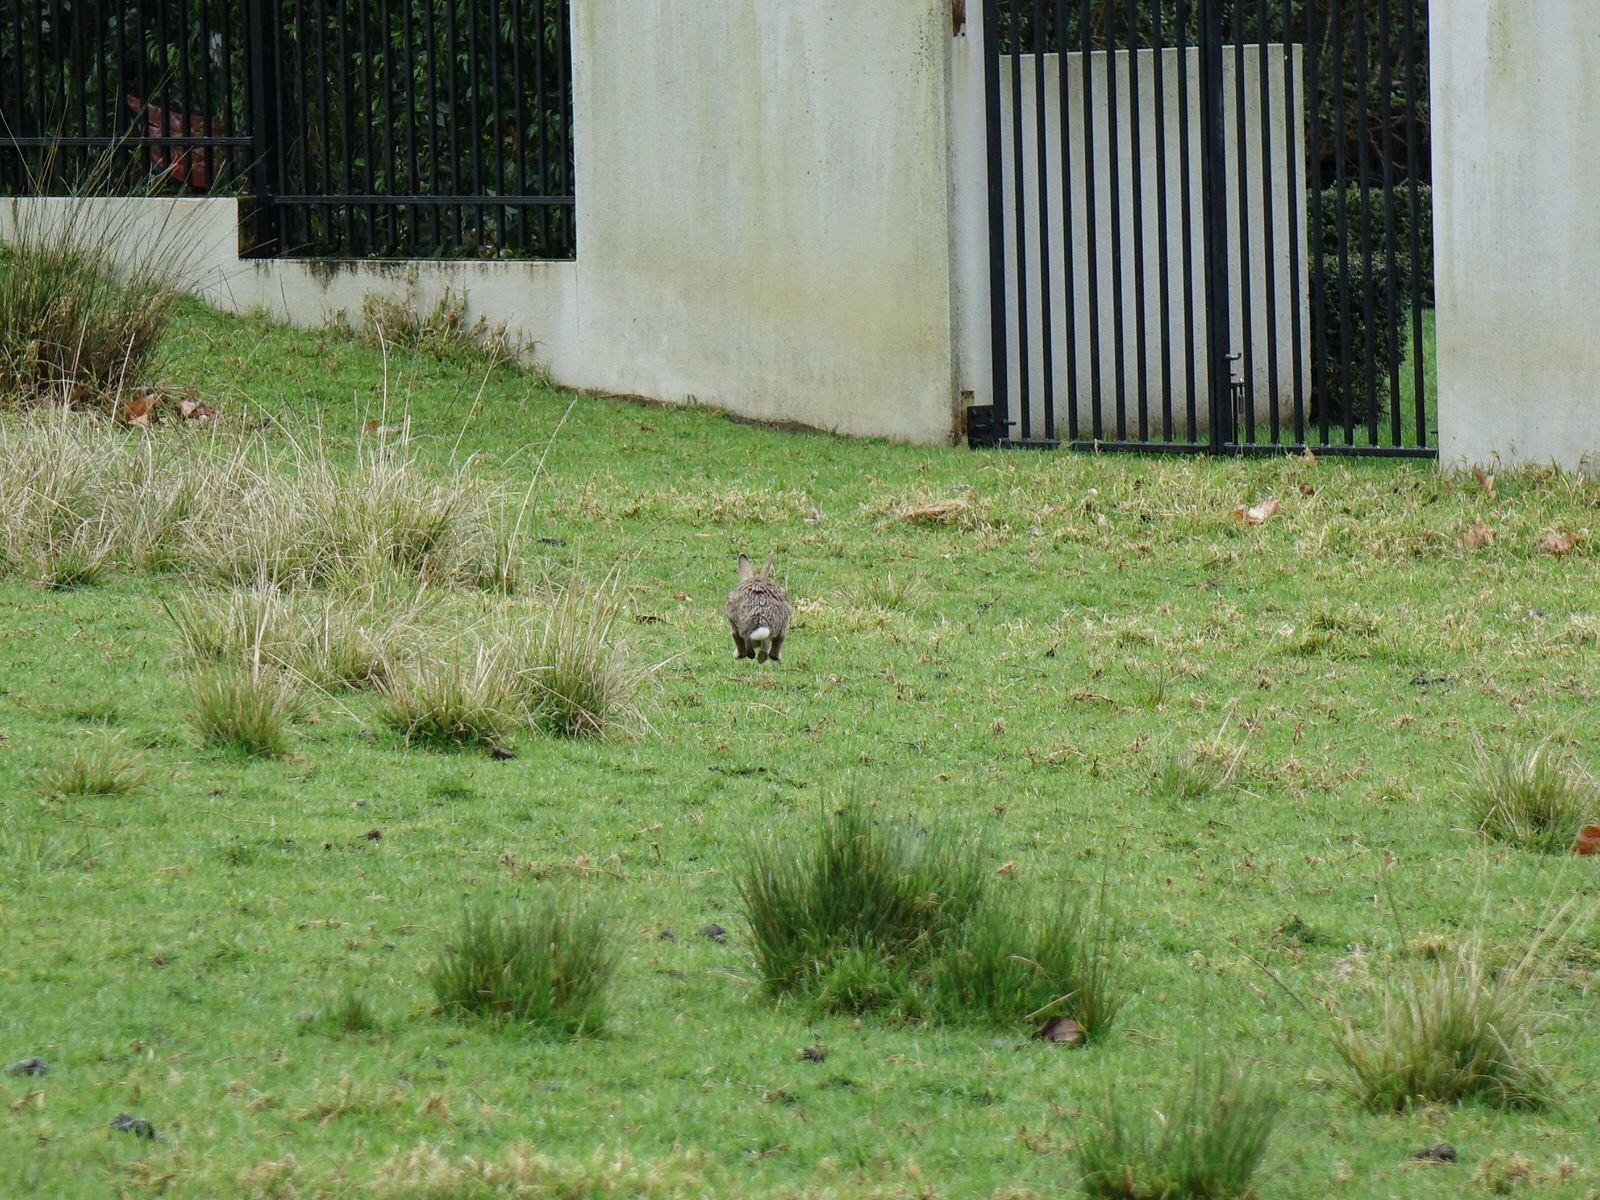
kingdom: Animalia
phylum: Chordata
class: Mammalia
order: Lagomorpha
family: Leporidae
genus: Oryctolagus
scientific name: Oryctolagus cuniculus
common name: European rabbit
